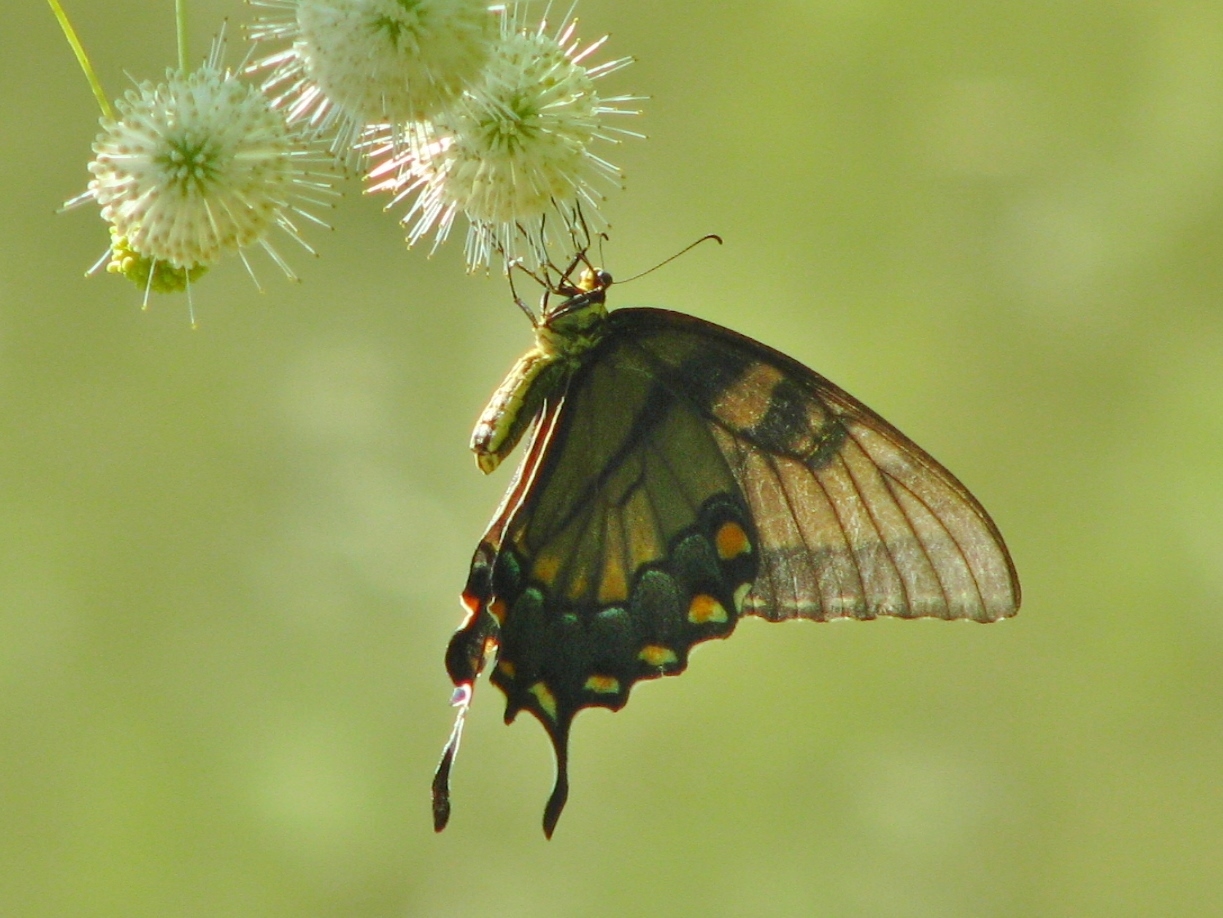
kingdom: Animalia
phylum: Arthropoda
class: Insecta
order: Lepidoptera
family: Papilionidae
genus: Papilio
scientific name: Papilio glaucus
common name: Tiger swallowtail
